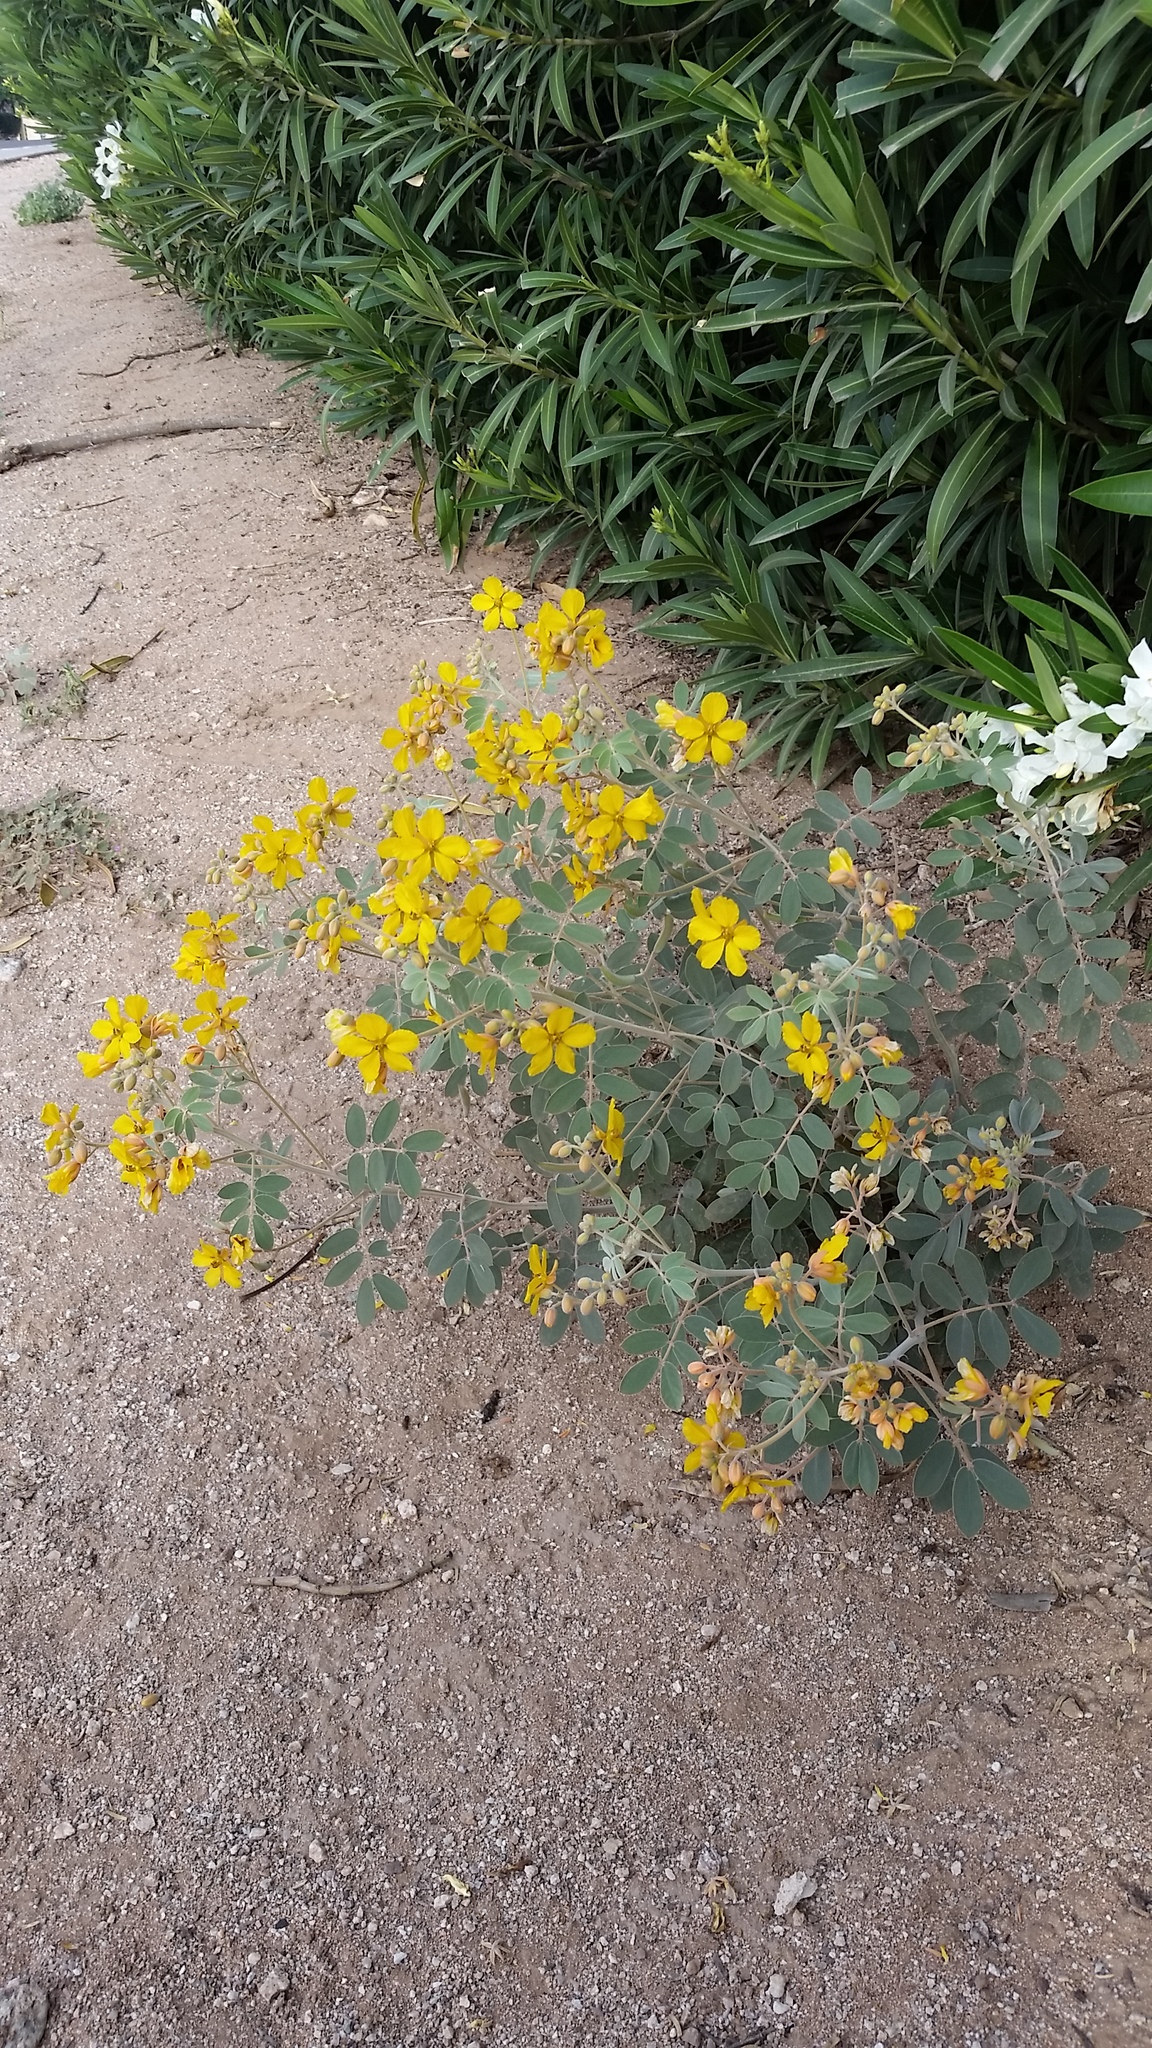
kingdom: Plantae
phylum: Tracheophyta
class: Magnoliopsida
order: Fabales
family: Fabaceae
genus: Senna
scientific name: Senna covesii
